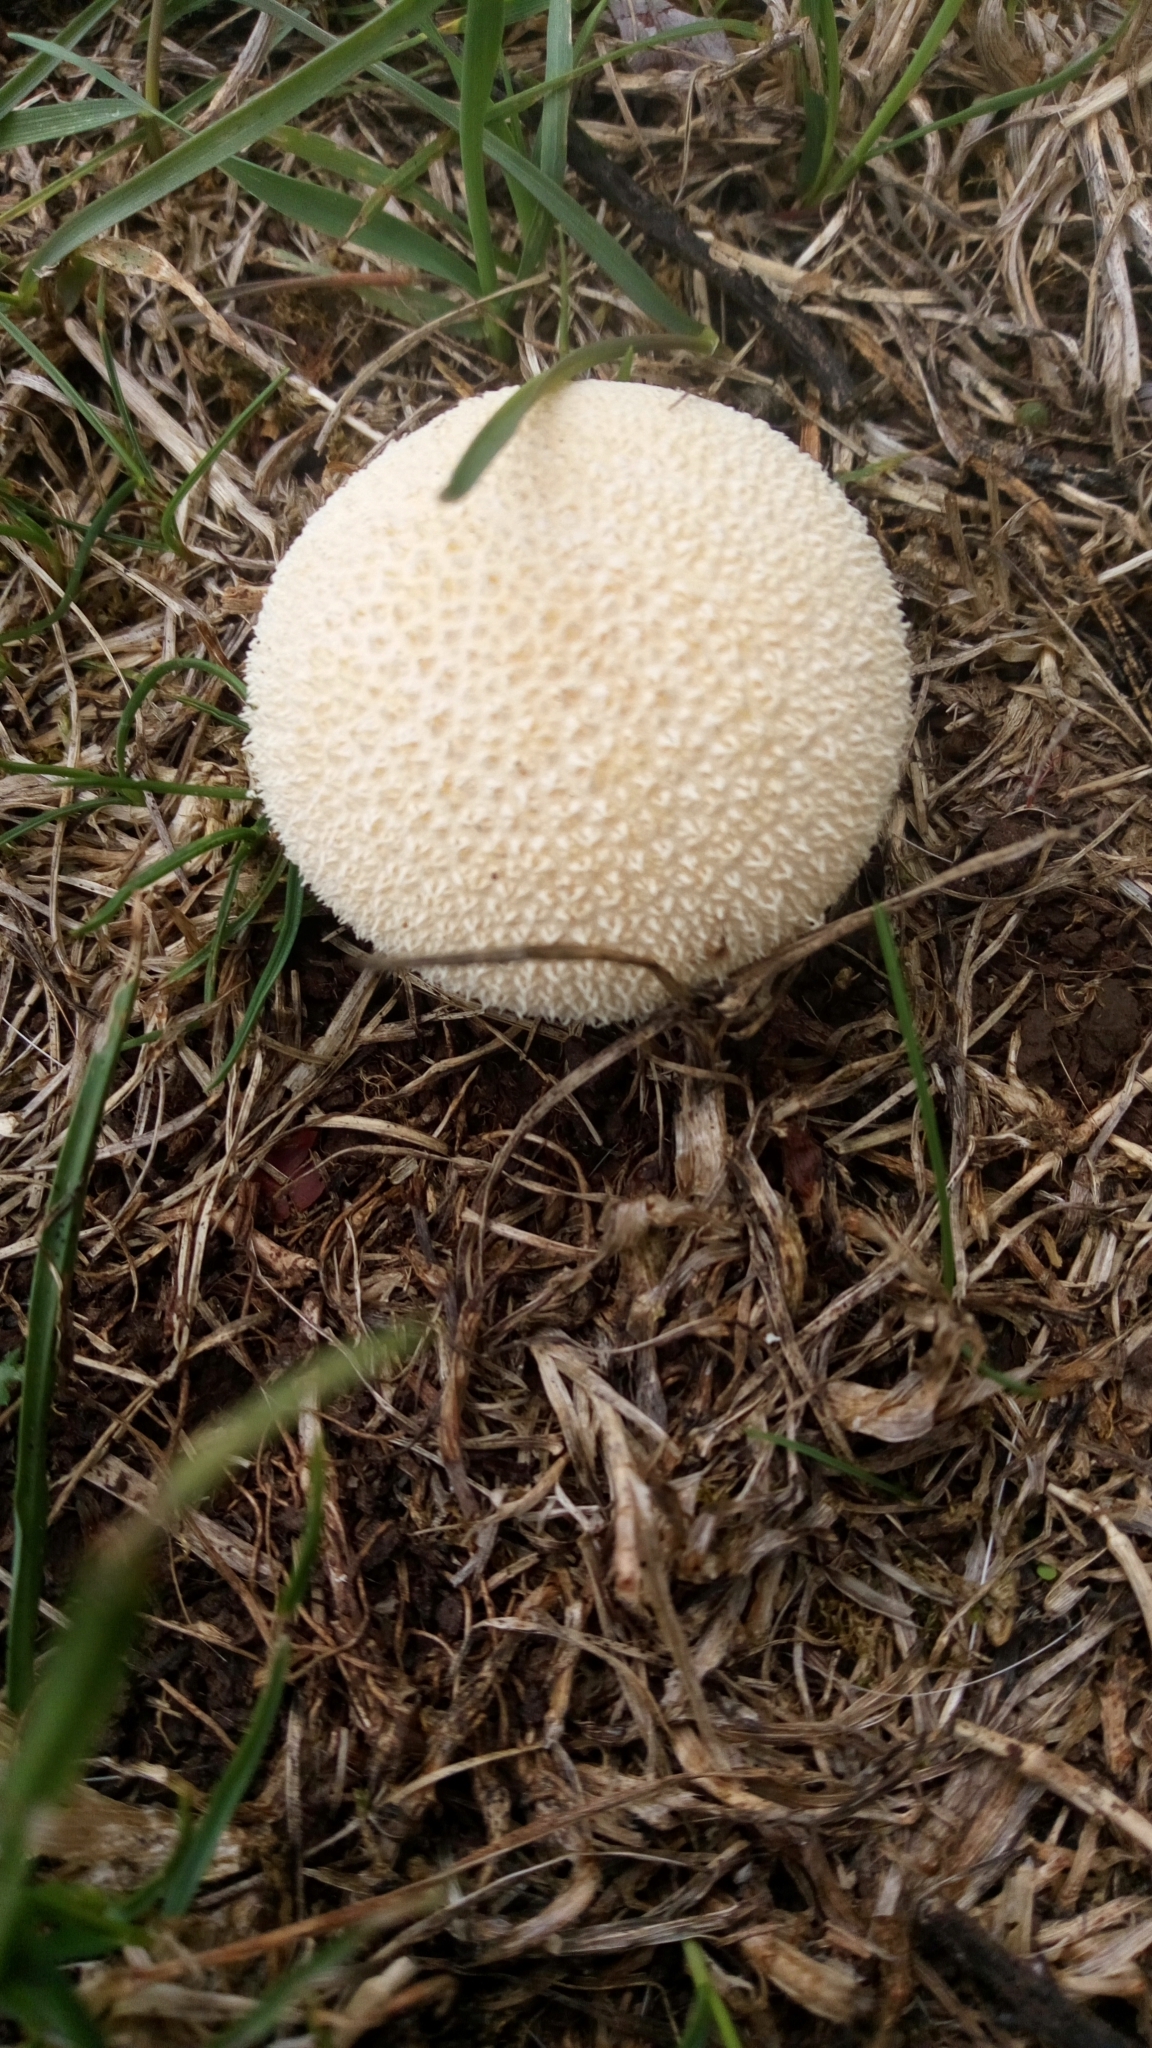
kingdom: Fungi
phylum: Basidiomycota
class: Agaricomycetes
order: Agaricales
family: Lycoperdaceae
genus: Lycoperdon
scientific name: Lycoperdon pratense
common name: Meadow puffball
